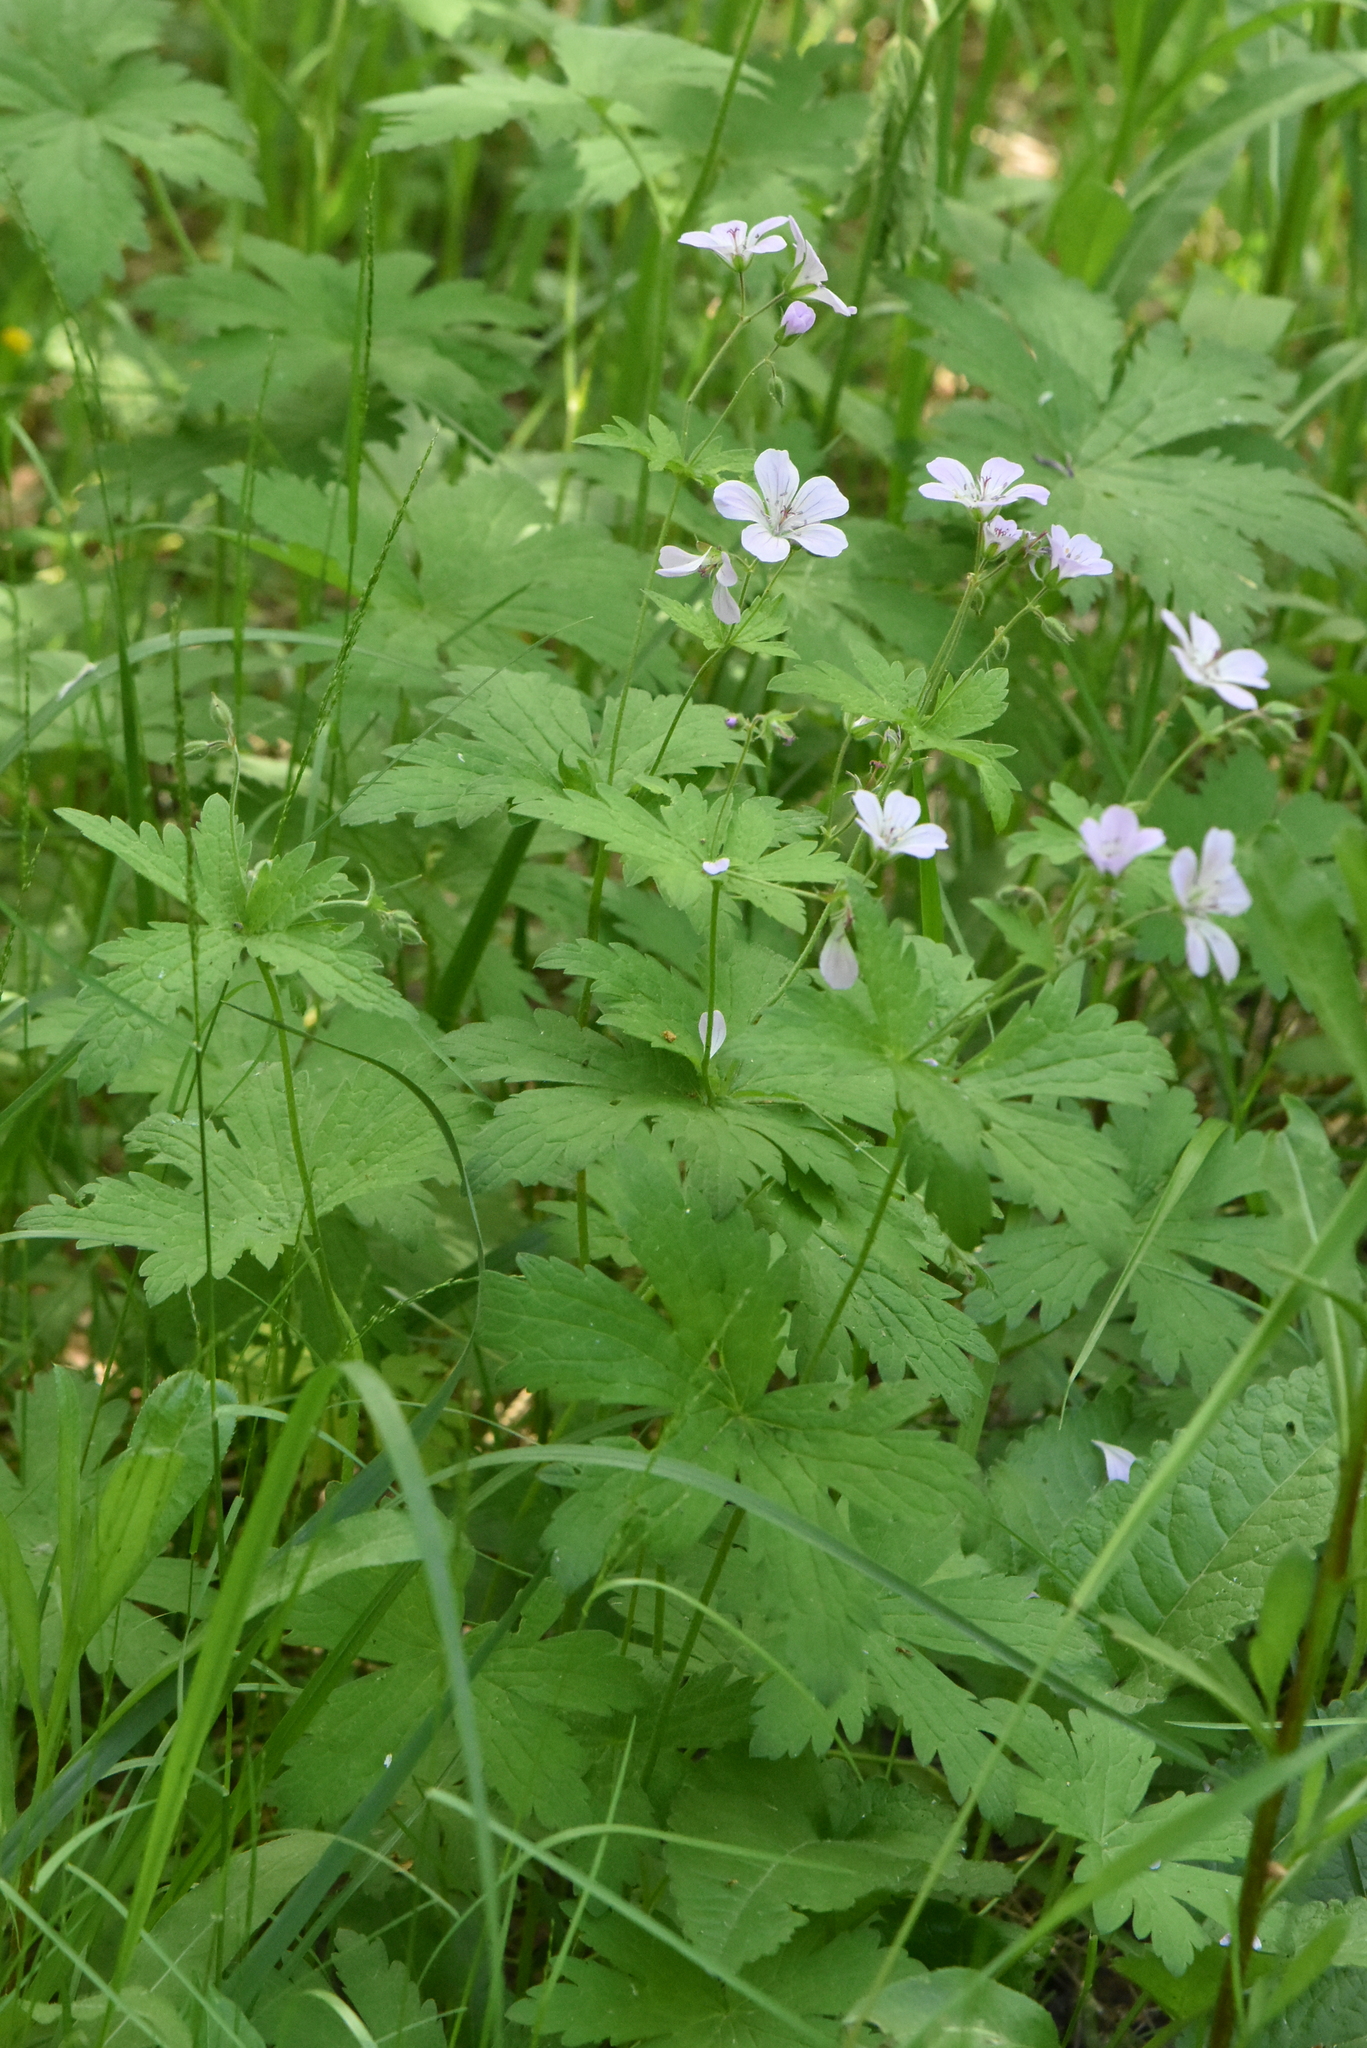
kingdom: Plantae
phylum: Tracheophyta
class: Magnoliopsida
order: Geraniales
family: Geraniaceae
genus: Geranium
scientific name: Geranium sylvaticum
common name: Wood crane's-bill
